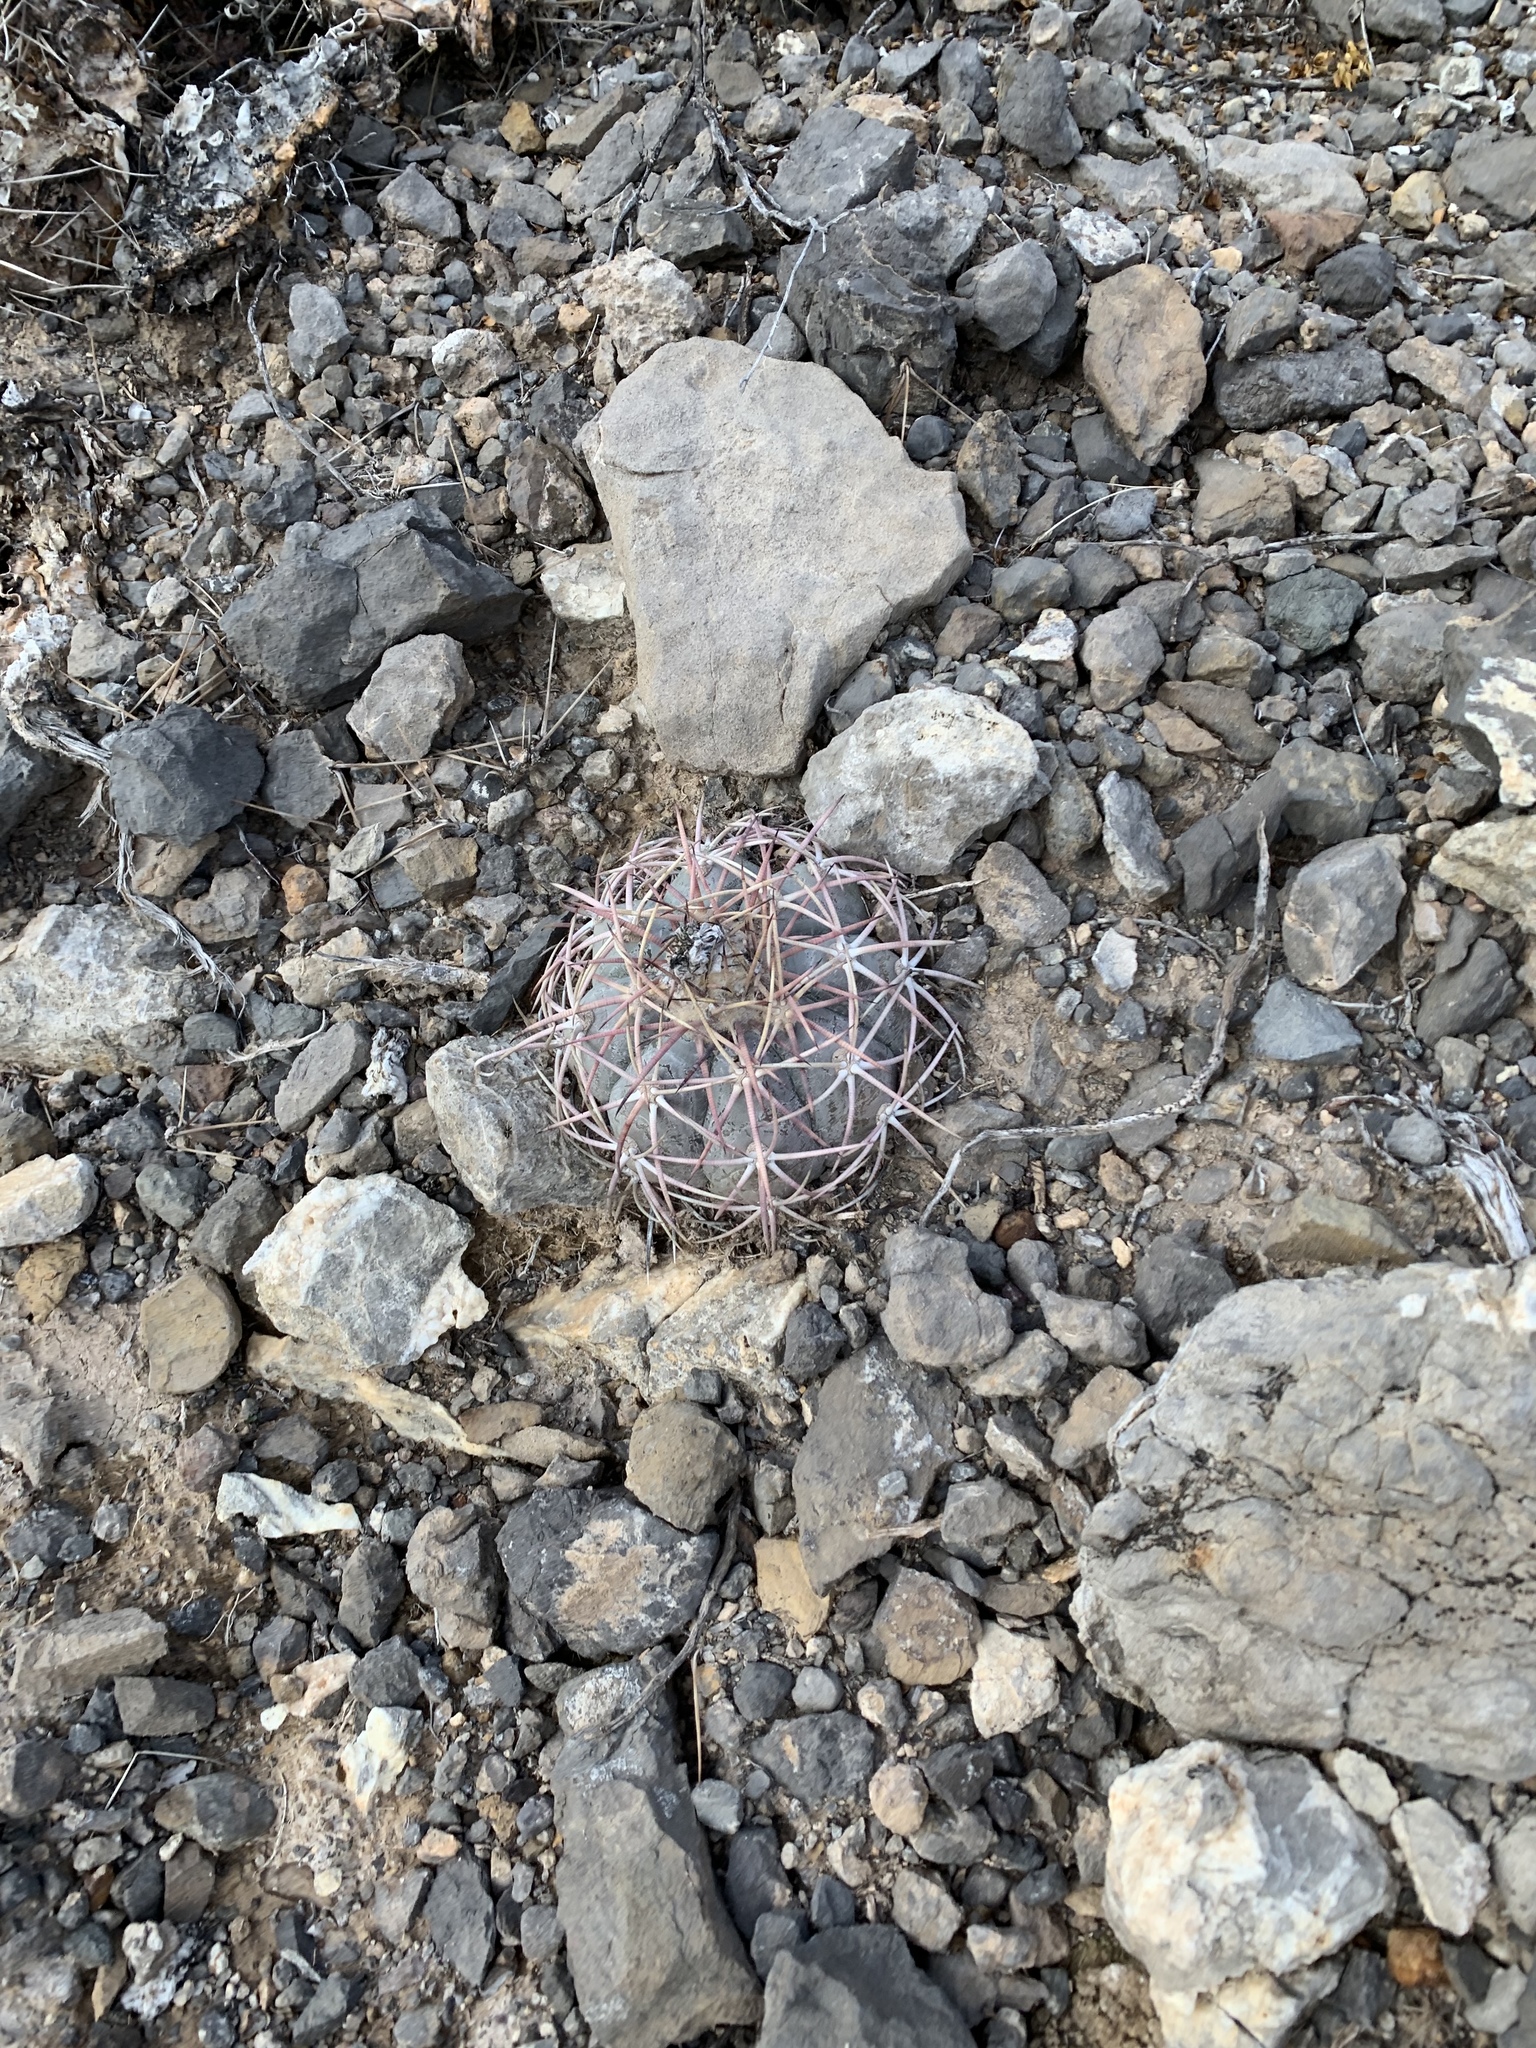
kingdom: Plantae
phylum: Tracheophyta
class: Magnoliopsida
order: Caryophyllales
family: Cactaceae
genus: Echinocactus
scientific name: Echinocactus horizonthalonius
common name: Devilshead
